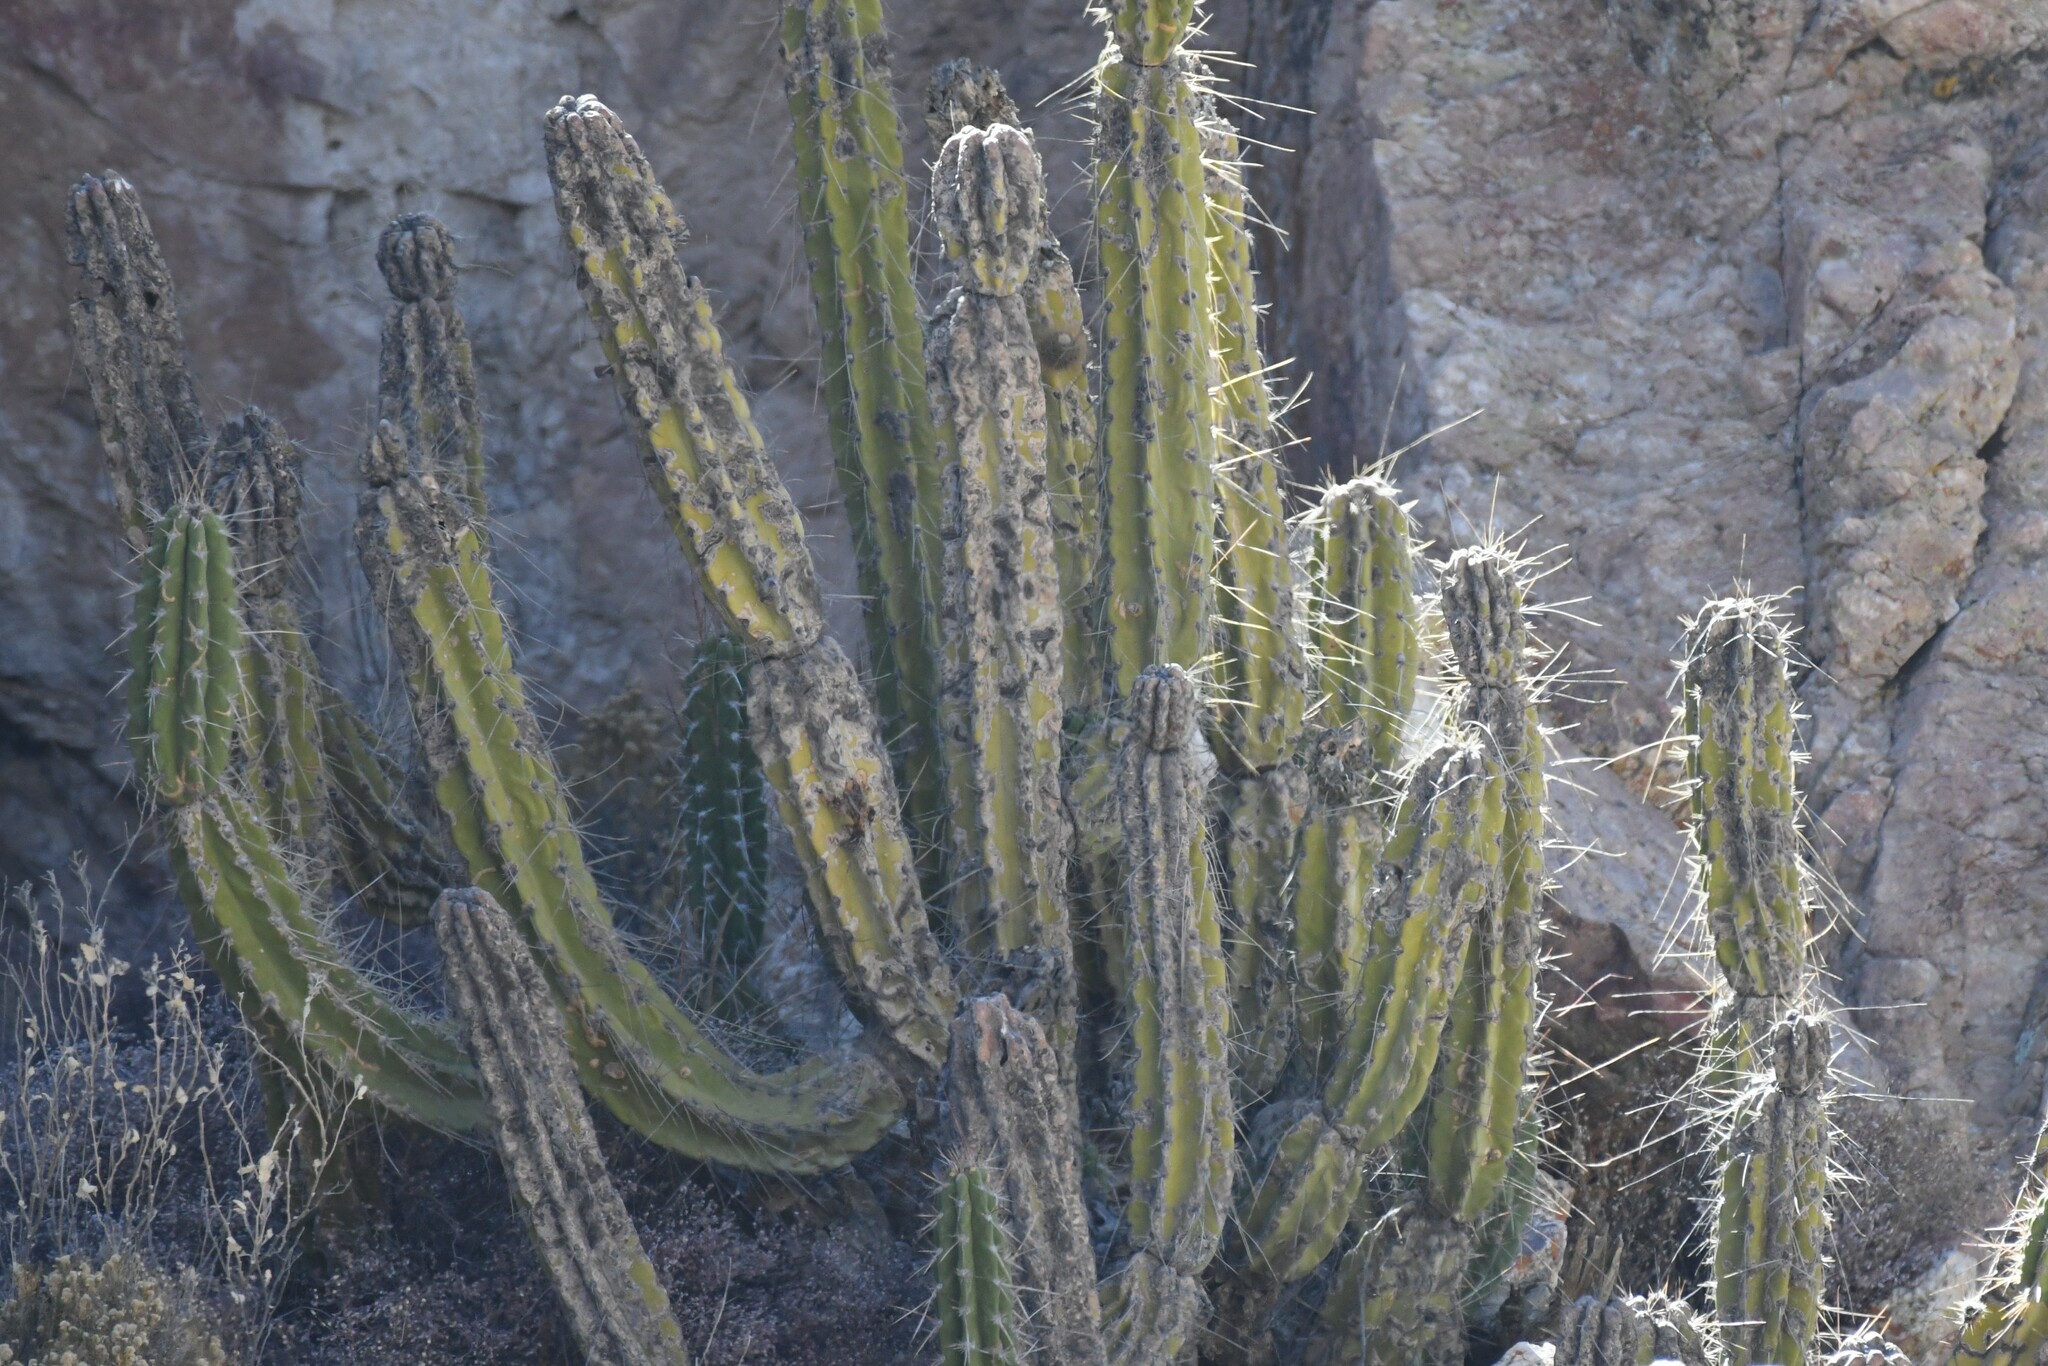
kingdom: Plantae
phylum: Tracheophyta
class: Magnoliopsida
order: Caryophyllales
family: Cactaceae
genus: Corryocactus
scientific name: Corryocactus brevistylus
